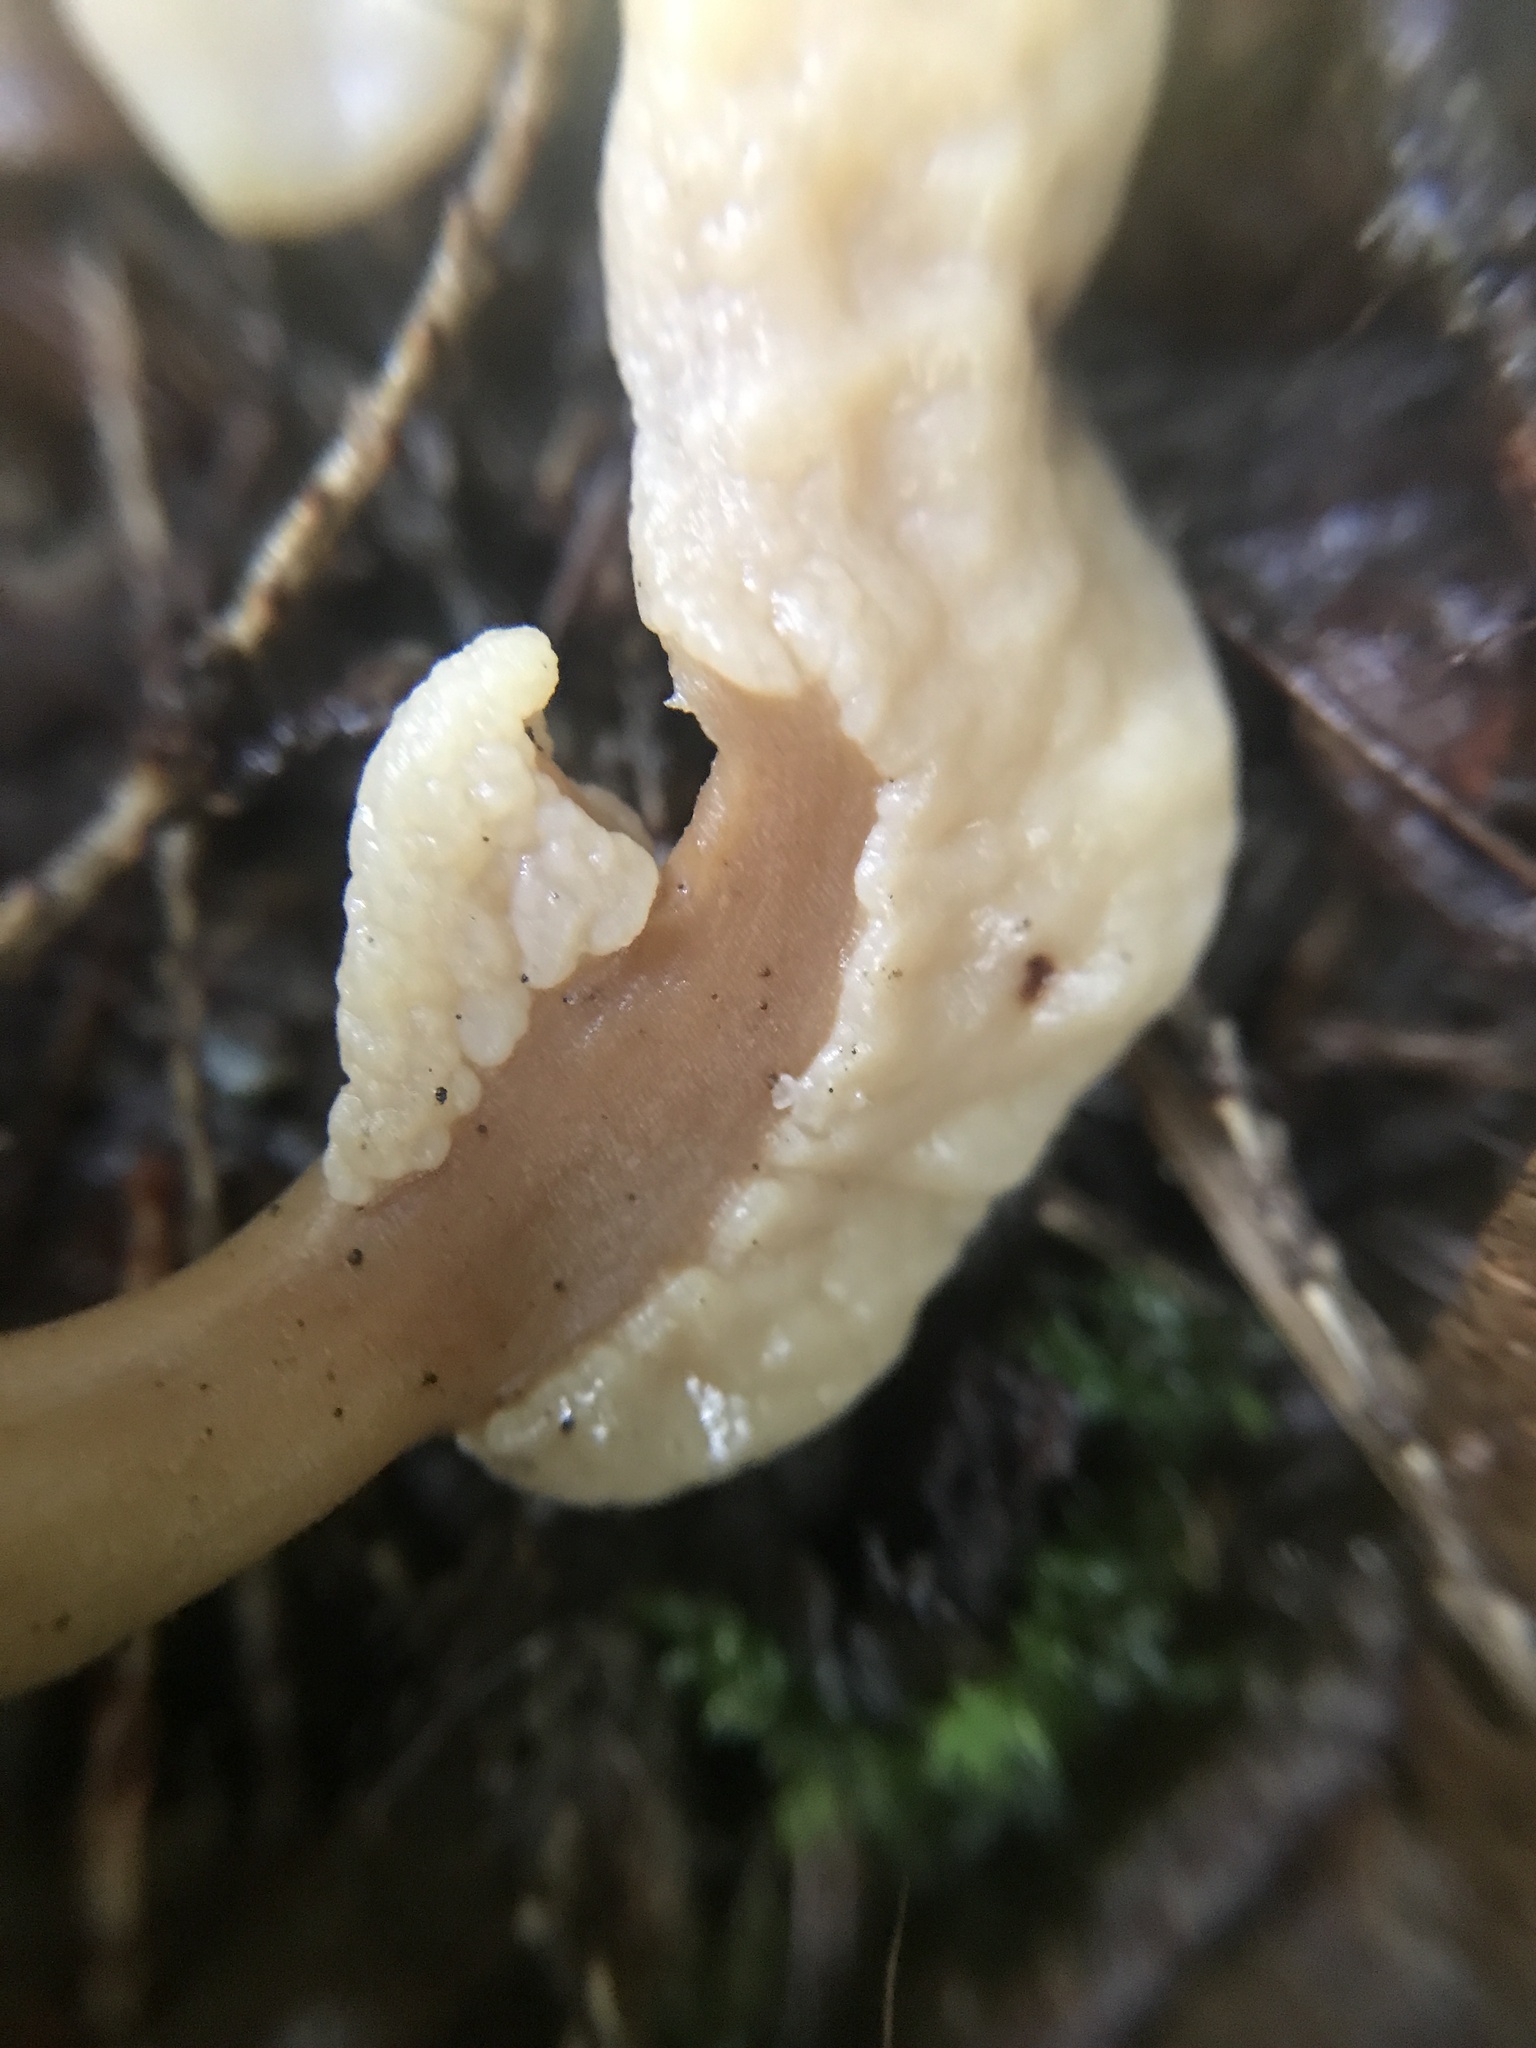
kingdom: Fungi
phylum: Ascomycota
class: Leotiomycetes
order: Rhytismatales
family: Cudoniaceae
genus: Spathulariopsis
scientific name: Spathulariopsis velutipes
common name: Velvet-foot fairy fan
